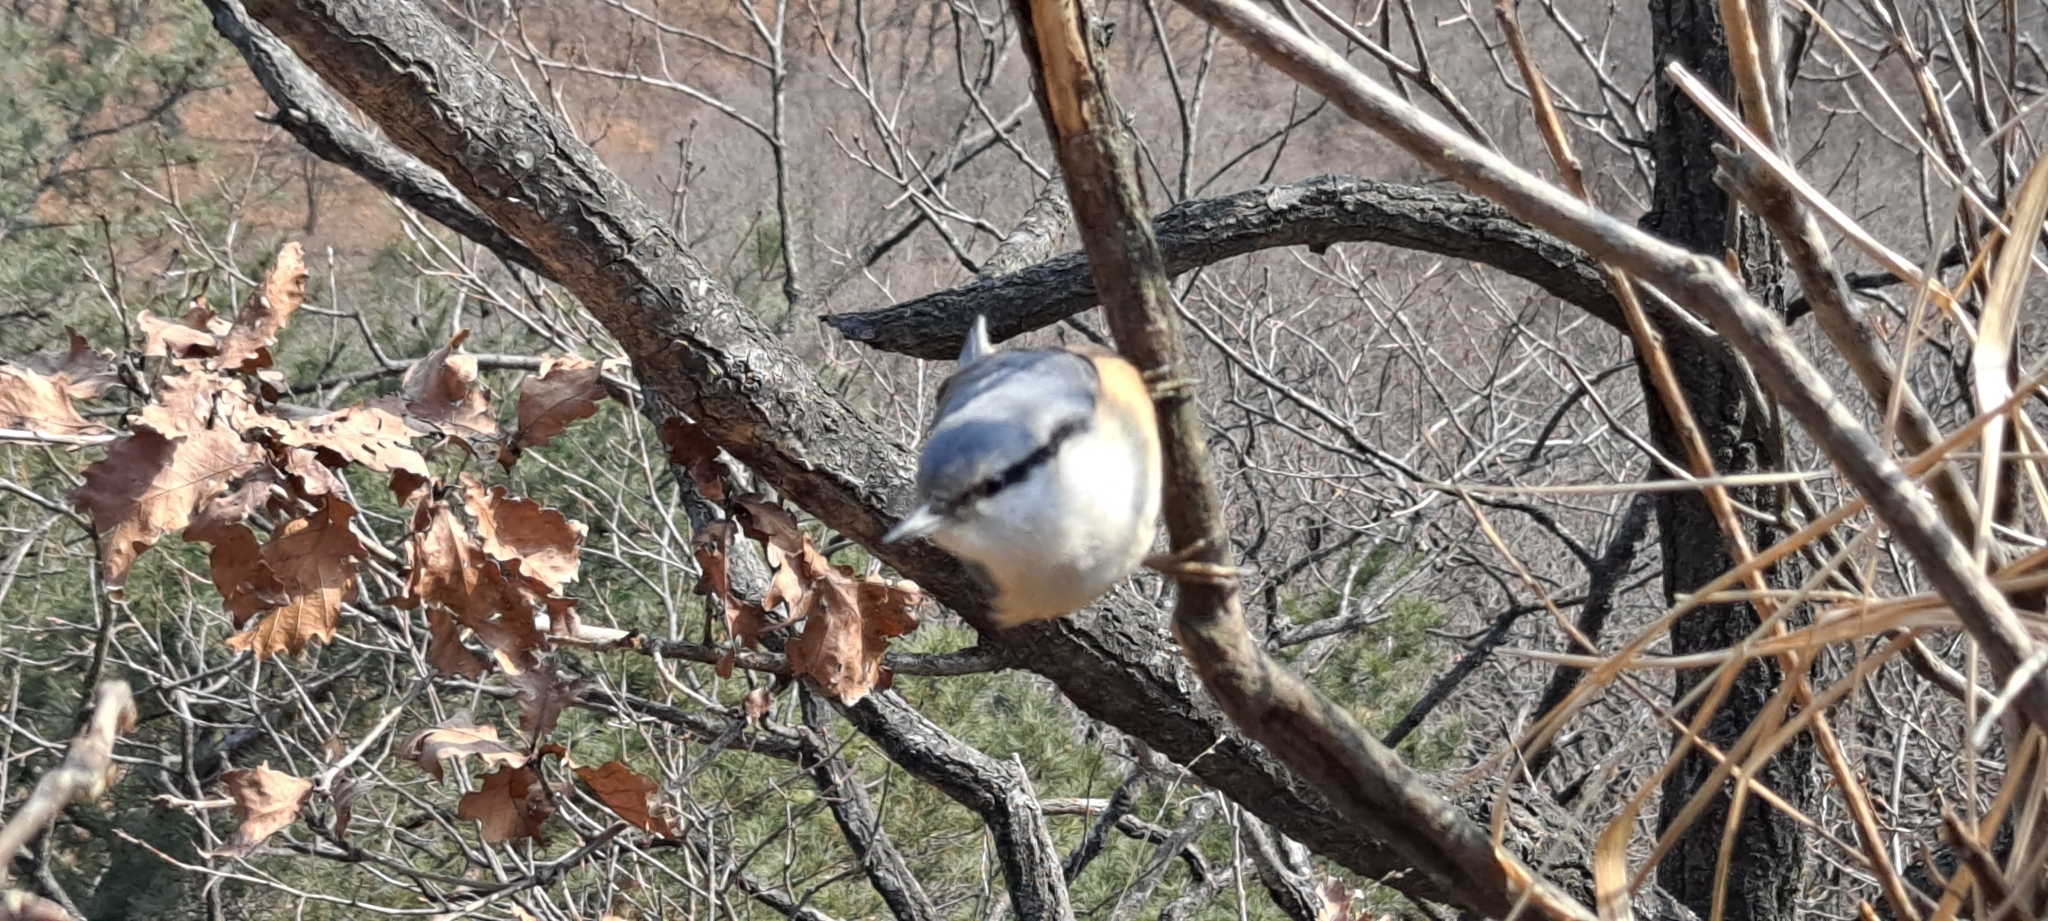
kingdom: Animalia
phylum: Chordata
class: Aves
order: Passeriformes
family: Sittidae
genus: Sitta
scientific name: Sitta europaea
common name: Eurasian nuthatch
